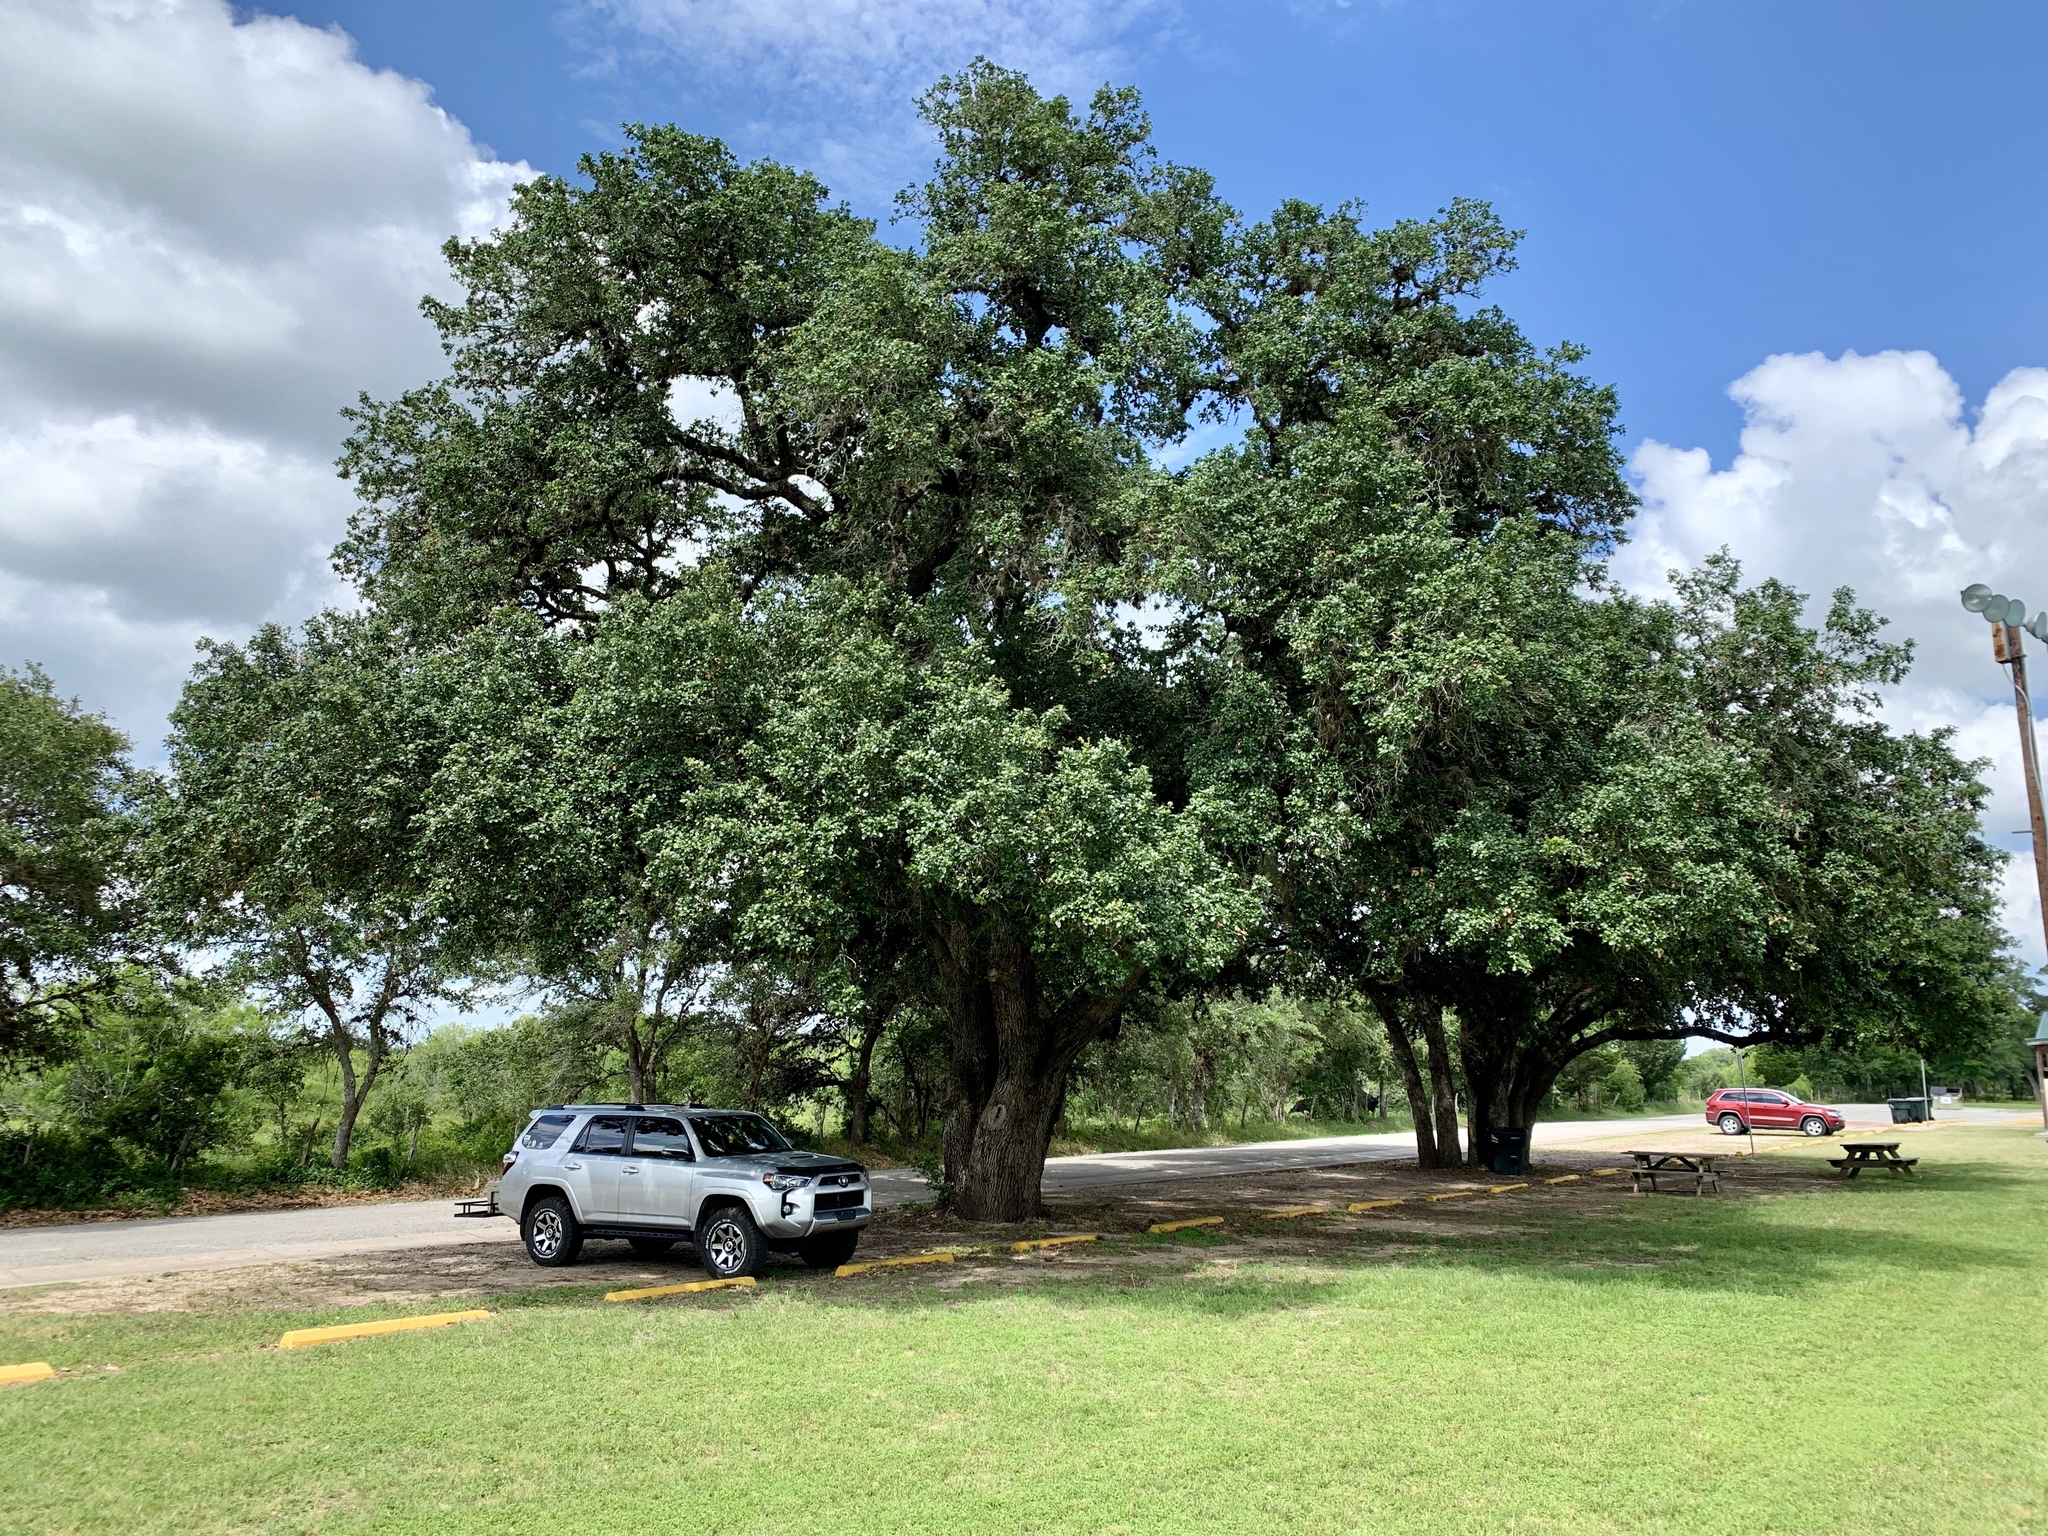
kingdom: Plantae
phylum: Tracheophyta
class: Magnoliopsida
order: Fagales
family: Fagaceae
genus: Quercus
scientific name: Quercus virginiana
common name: Southern live oak
